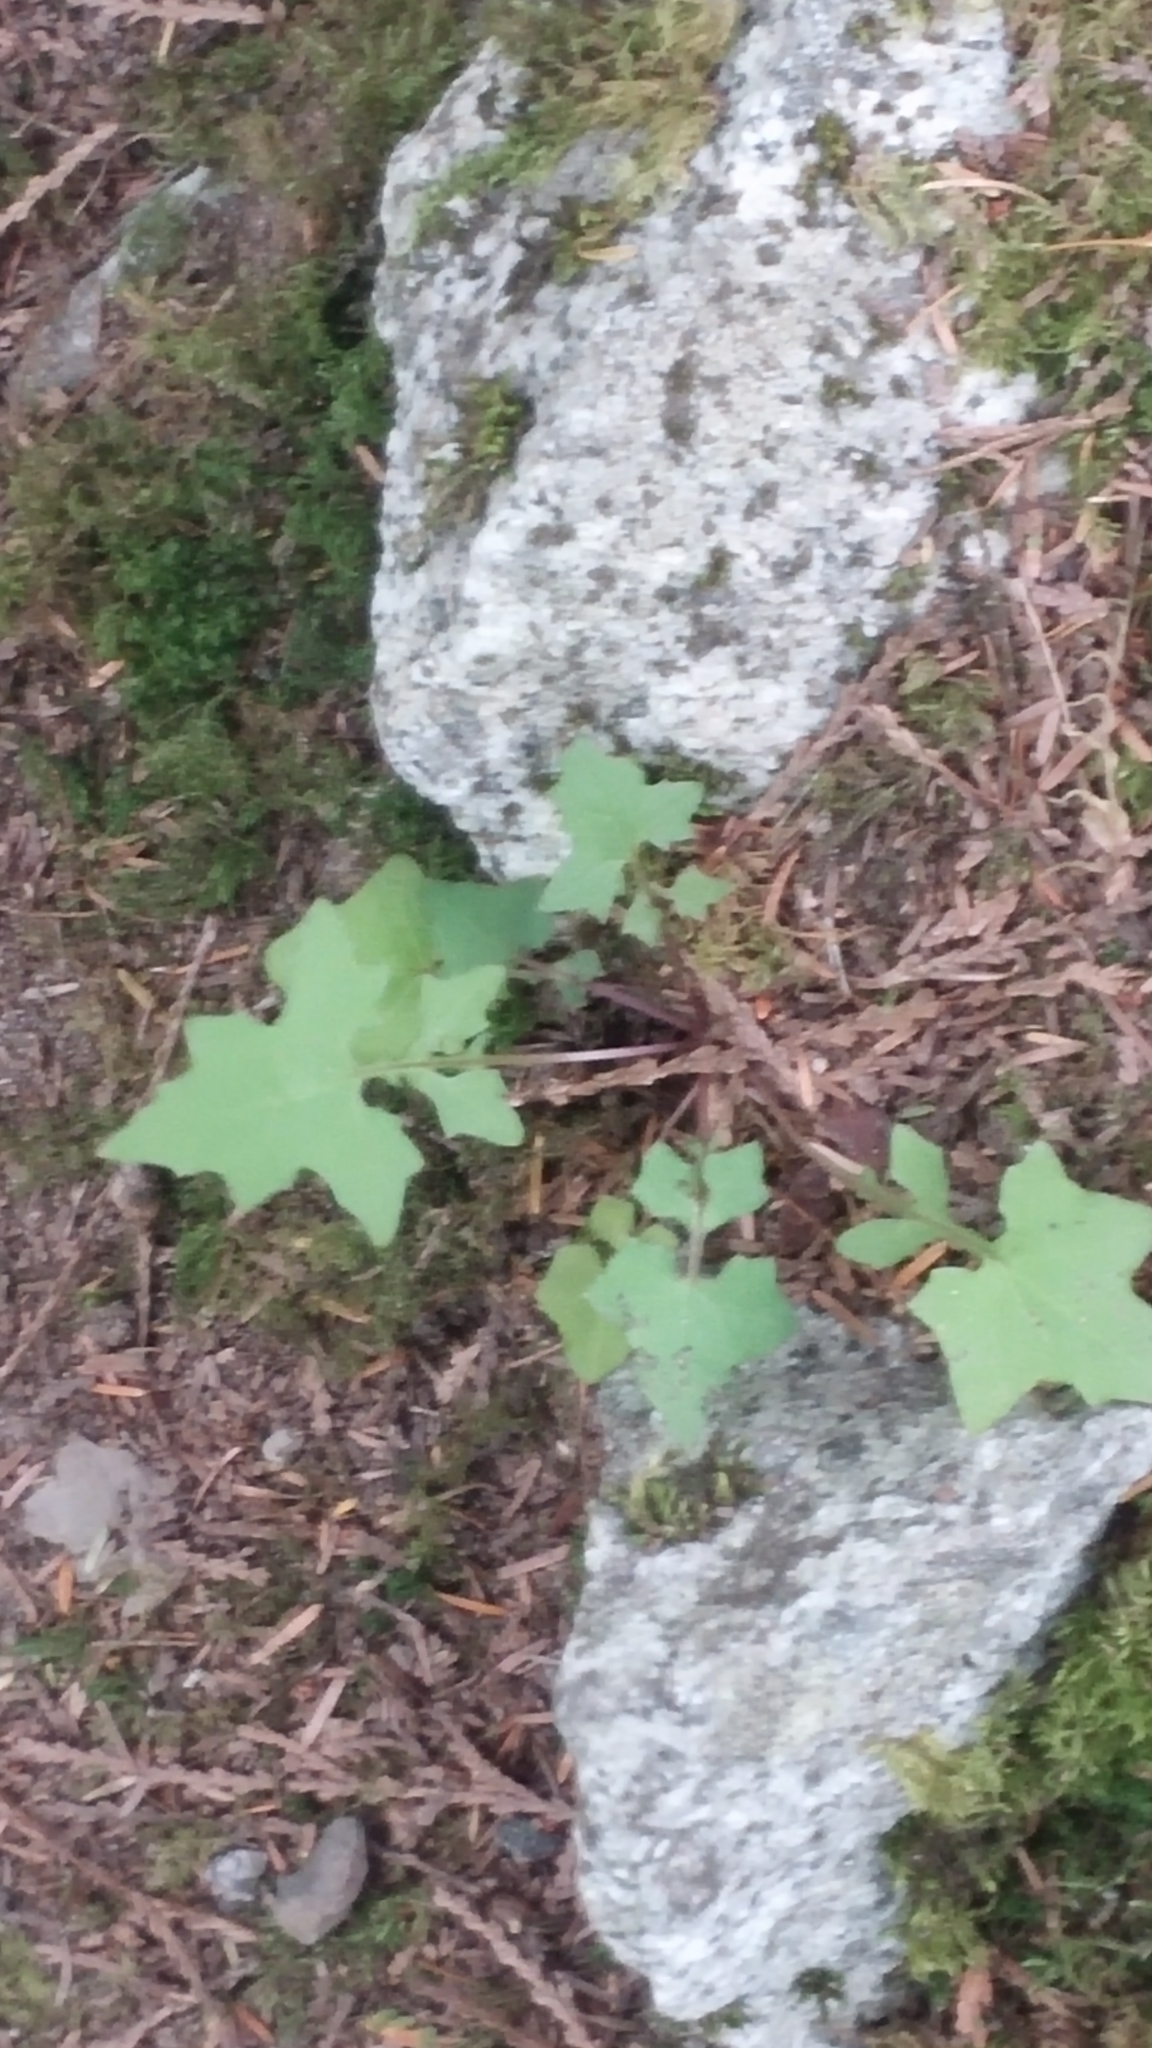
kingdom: Plantae
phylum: Tracheophyta
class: Magnoliopsida
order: Asterales
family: Asteraceae
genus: Mycelis
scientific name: Mycelis muralis
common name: Wall lettuce
